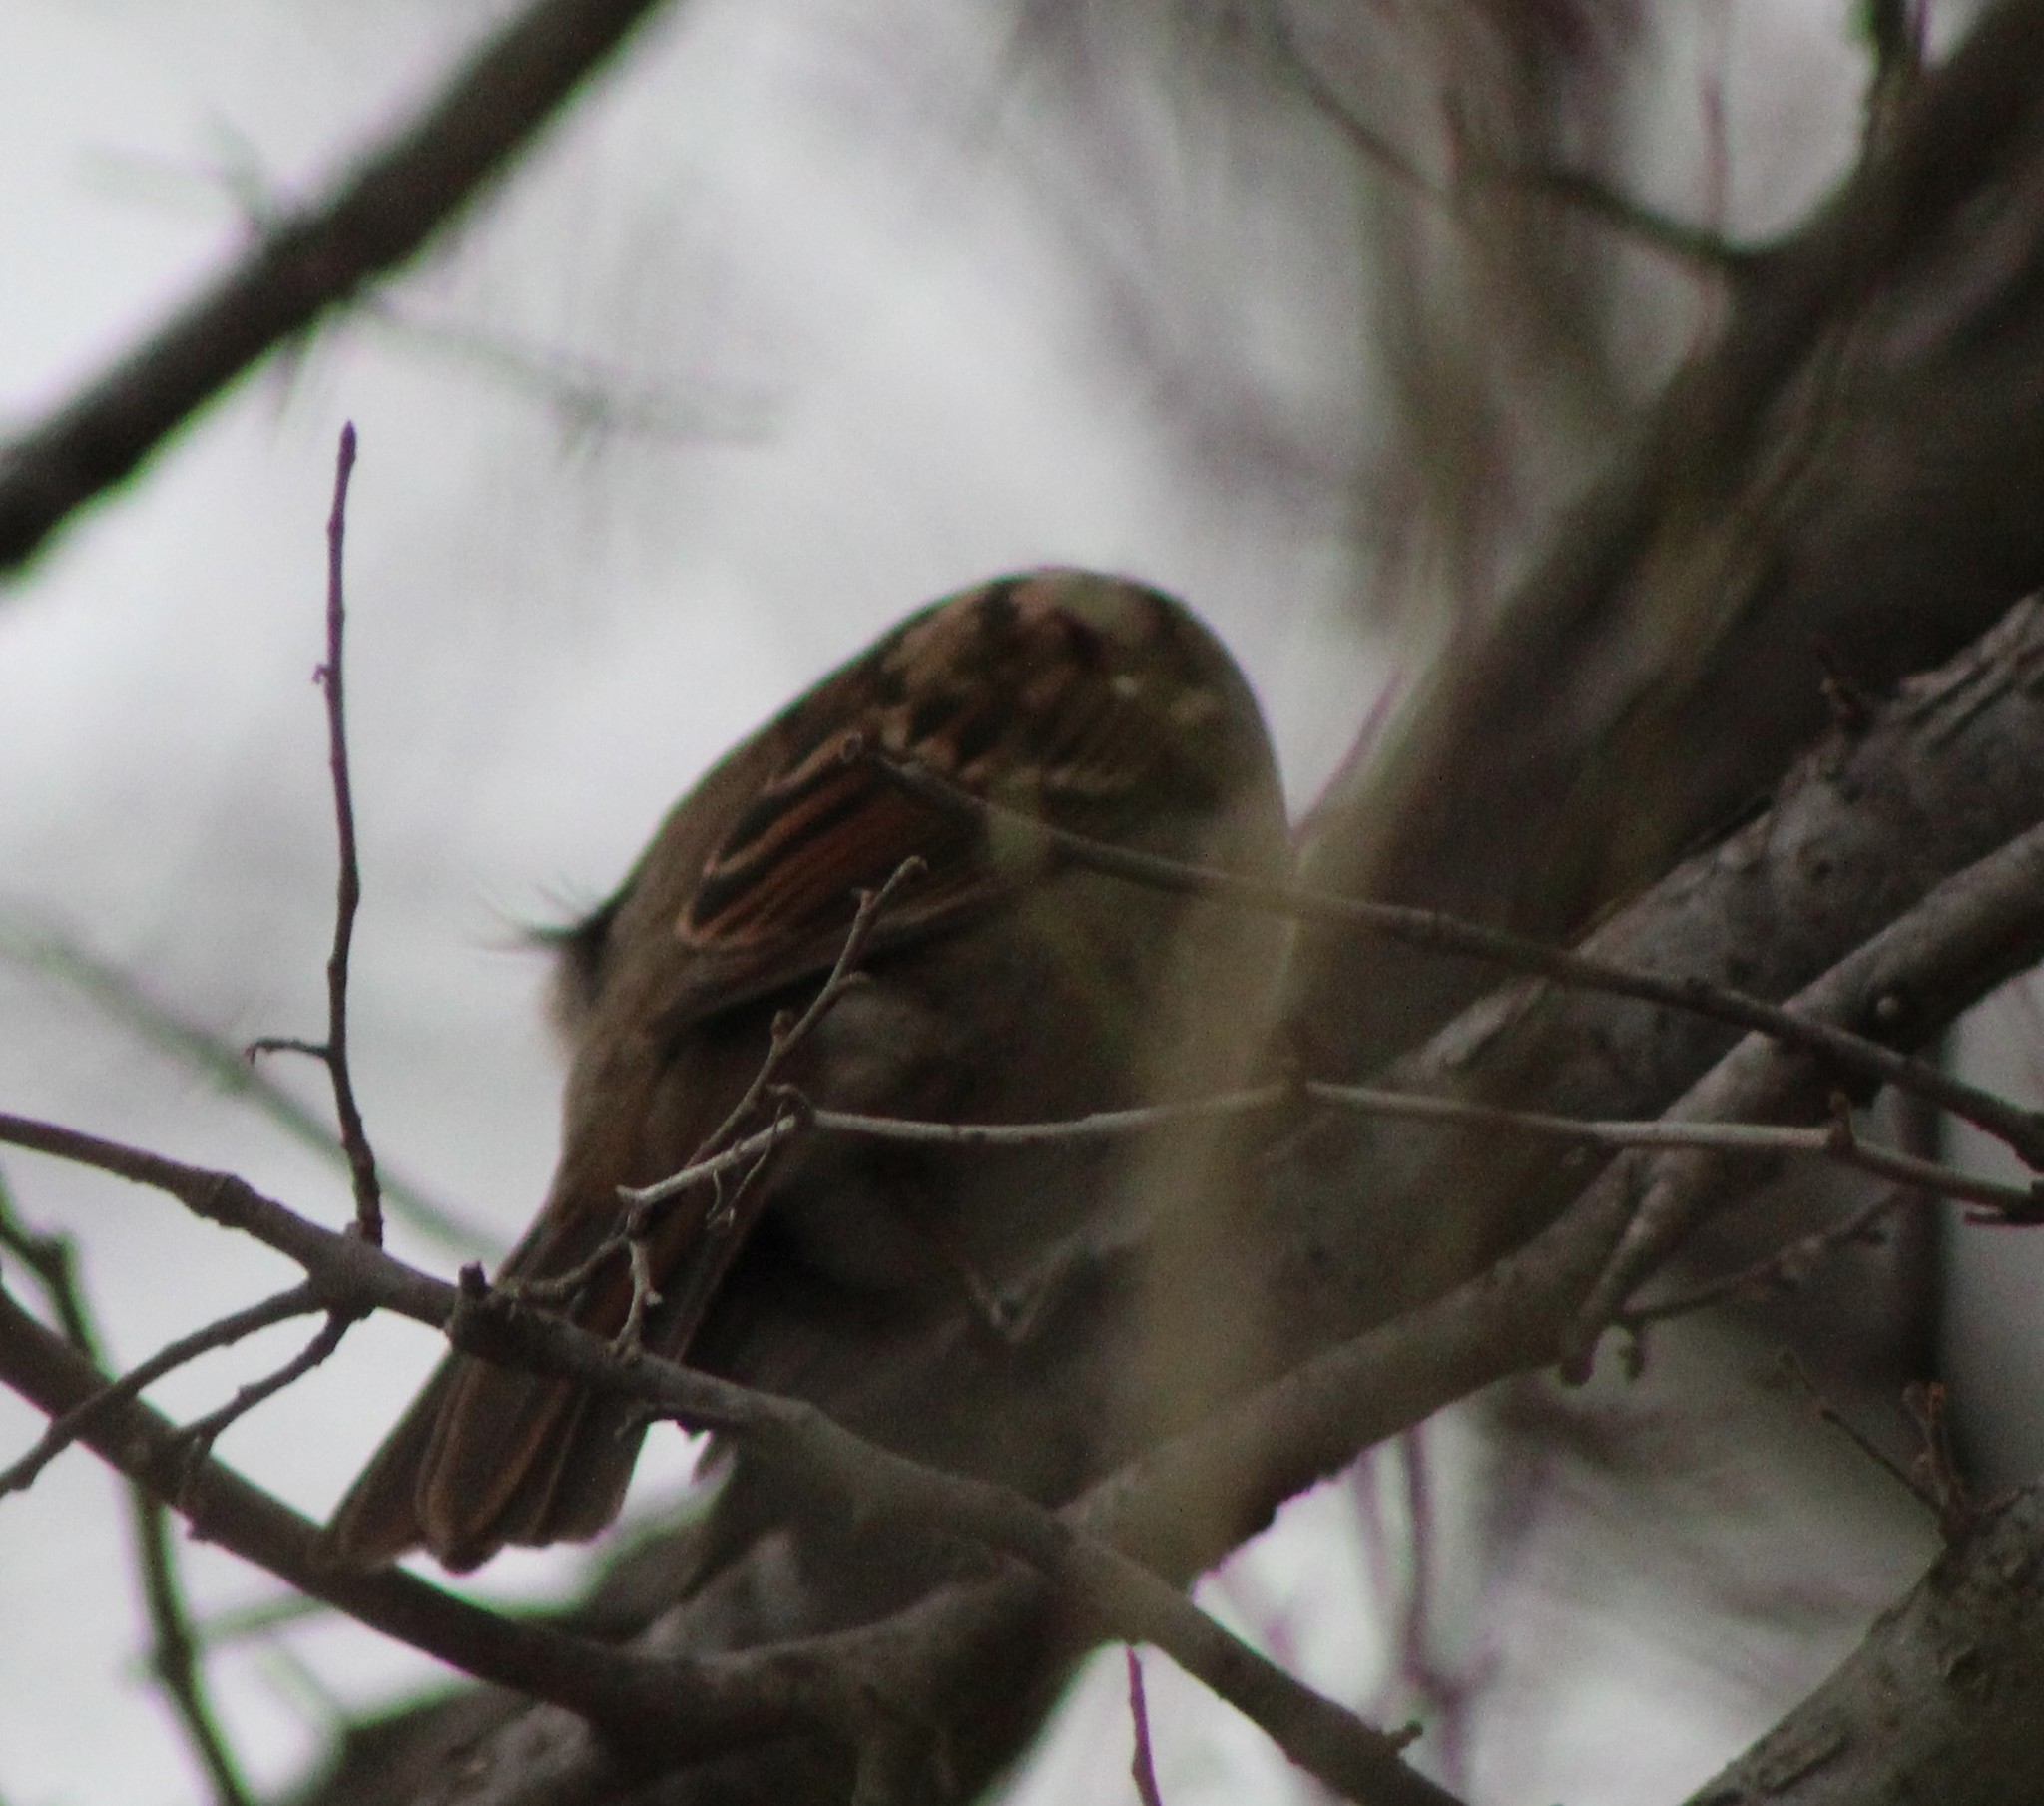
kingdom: Animalia
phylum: Chordata
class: Aves
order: Passeriformes
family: Passerellidae
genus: Zonotrichia
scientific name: Zonotrichia albicollis
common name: White-throated sparrow
